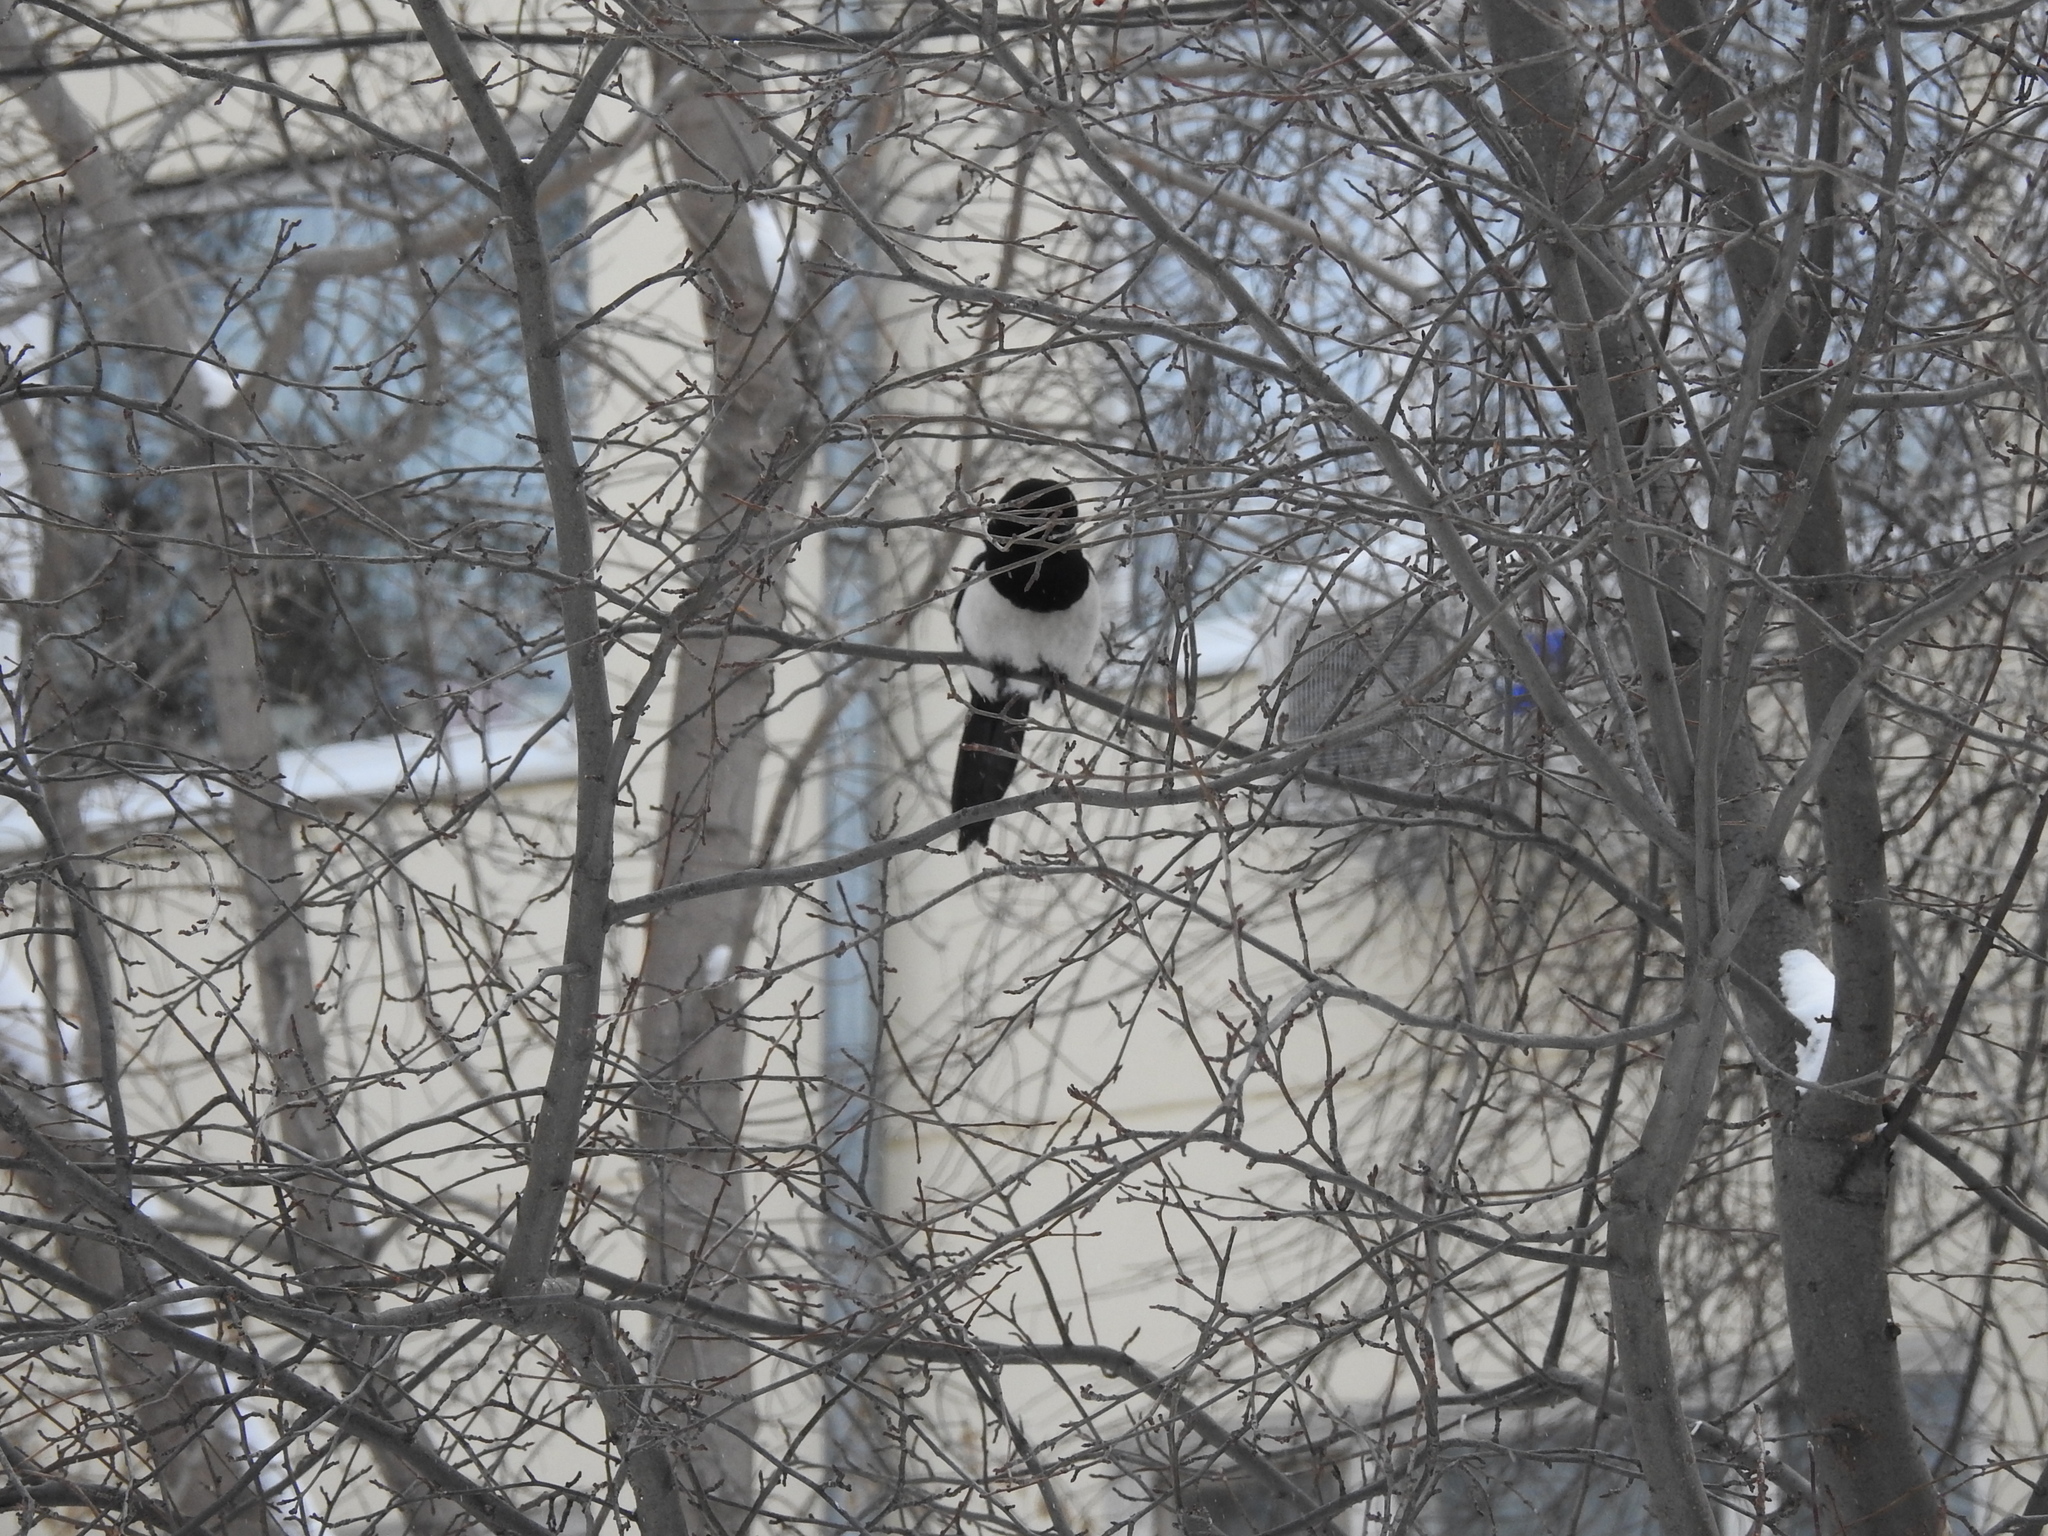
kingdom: Animalia
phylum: Chordata
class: Aves
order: Passeriformes
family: Corvidae
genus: Pica
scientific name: Pica pica
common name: Eurasian magpie
